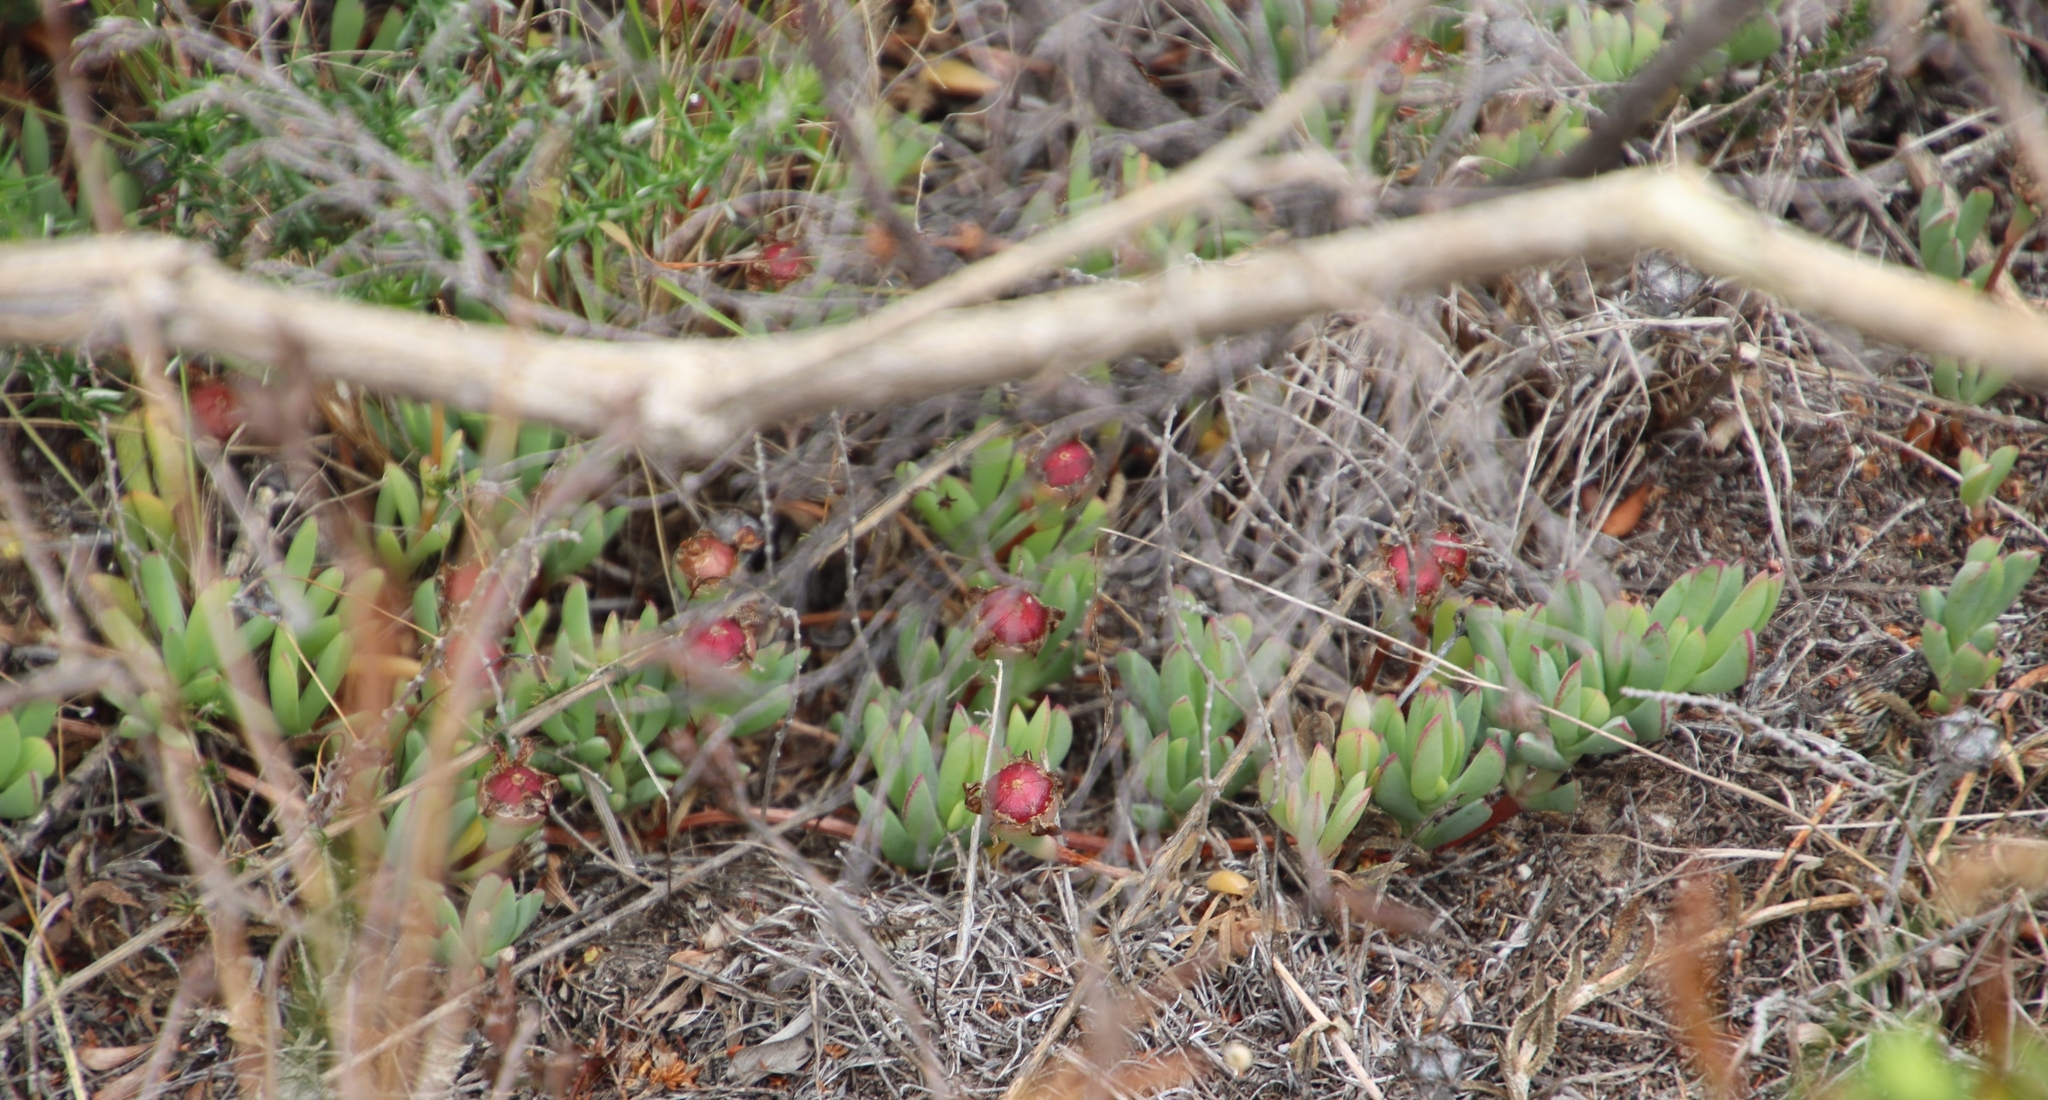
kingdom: Plantae
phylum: Tracheophyta
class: Magnoliopsida
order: Caryophyllales
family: Aizoaceae
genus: Lampranthus
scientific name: Lampranthus reptans
